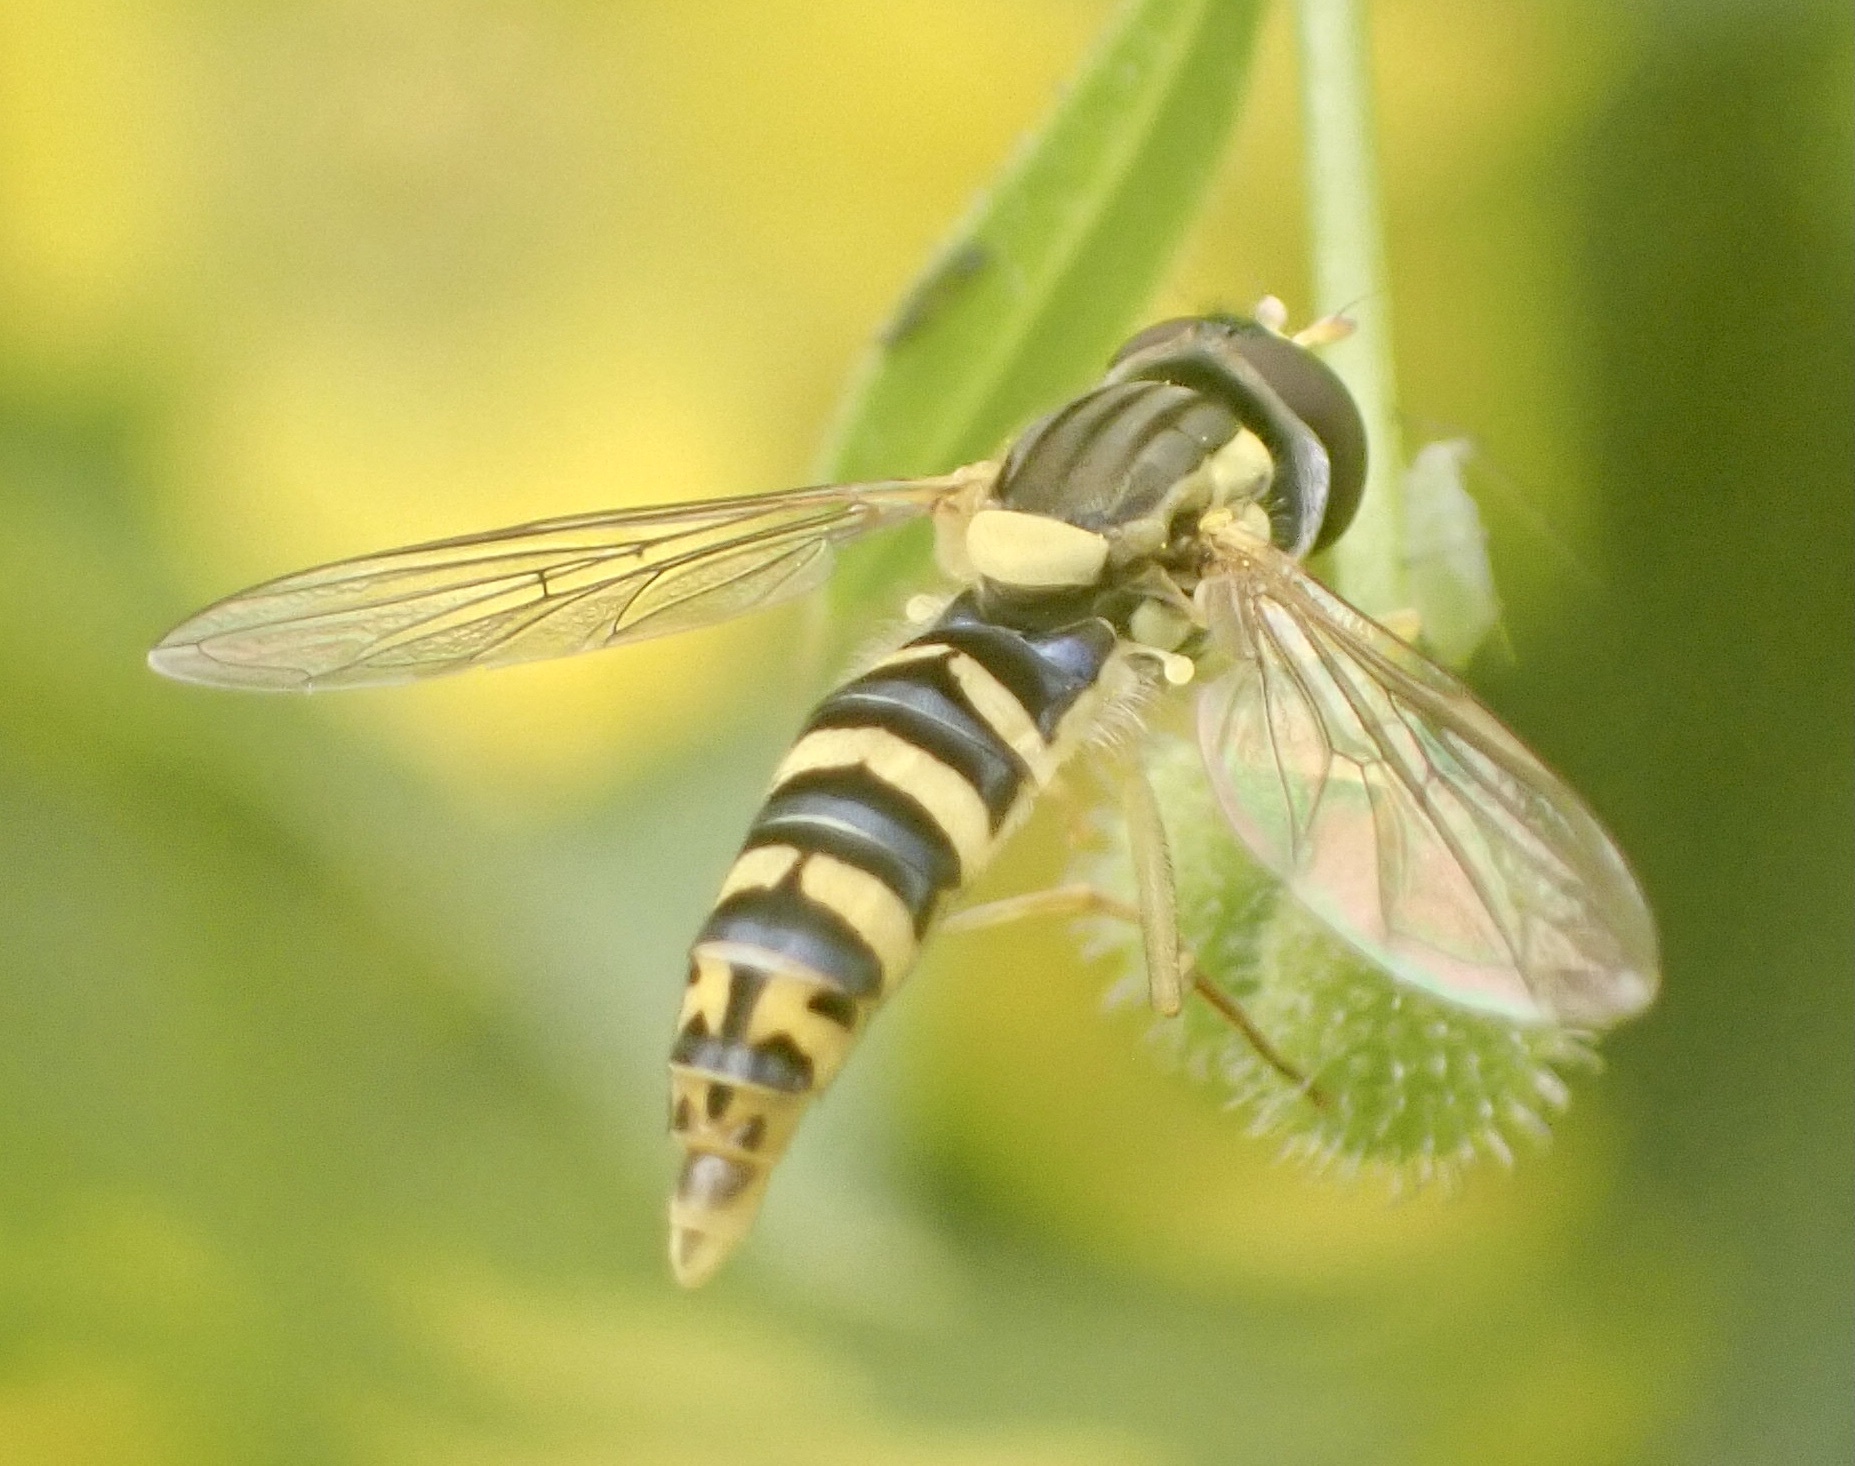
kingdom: Animalia
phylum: Arthropoda
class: Insecta
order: Diptera
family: Syrphidae
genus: Sphaerophoria
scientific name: Sphaerophoria
